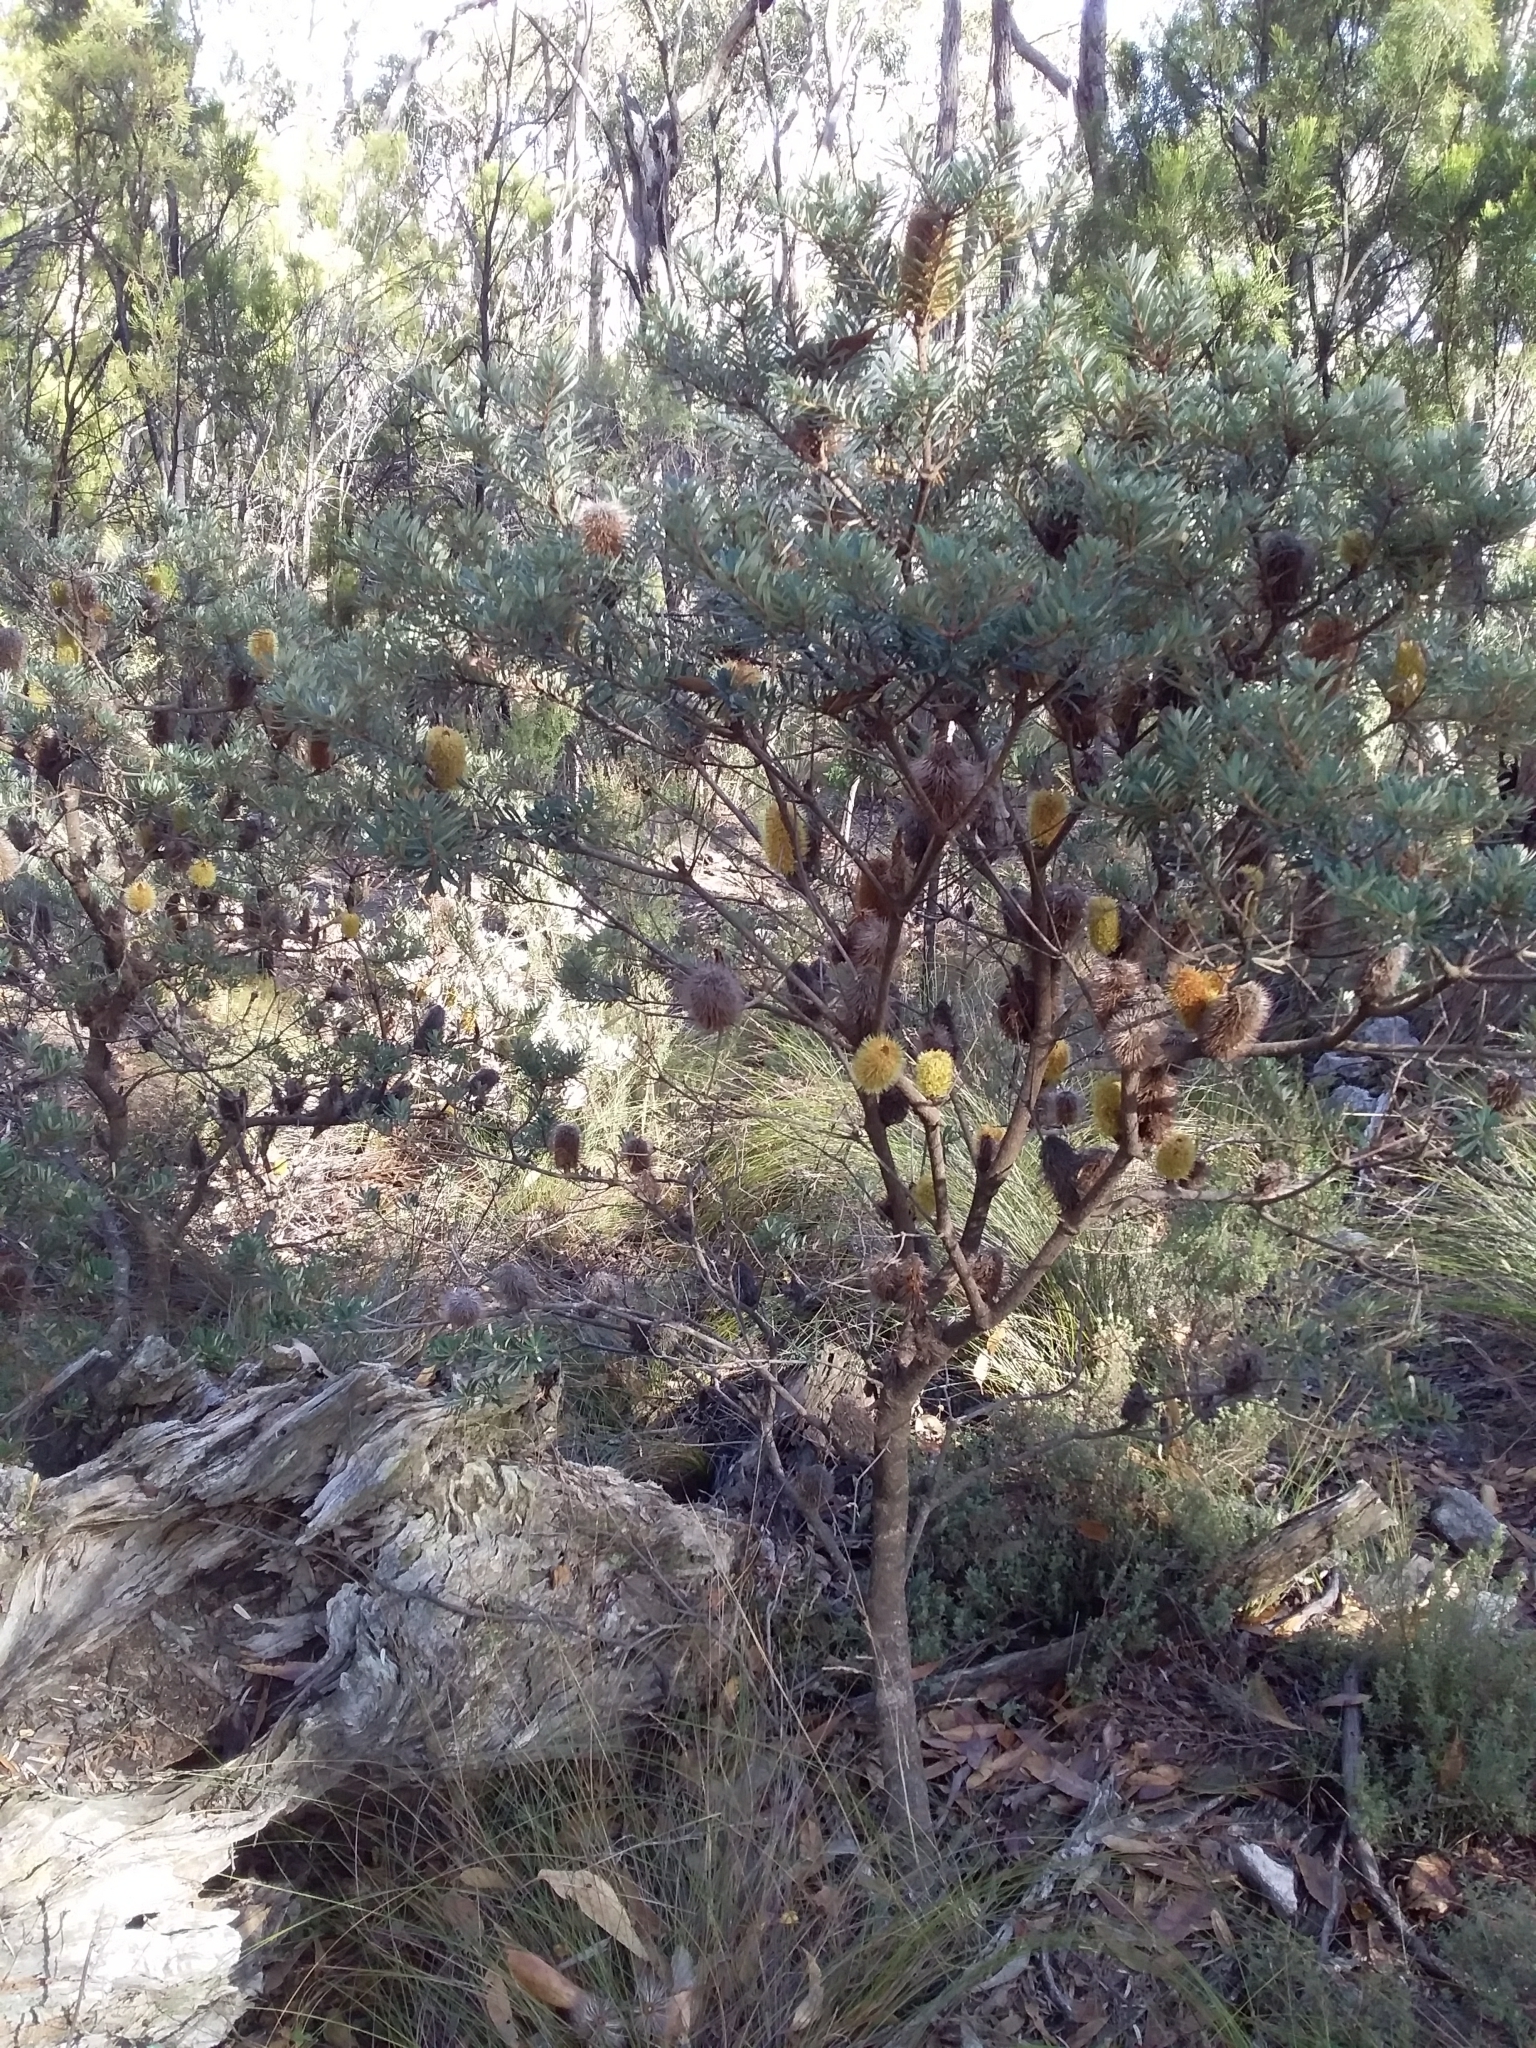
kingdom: Plantae
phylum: Tracheophyta
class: Magnoliopsida
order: Proteales
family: Proteaceae
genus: Banksia
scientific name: Banksia marginata
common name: Silver banksia
